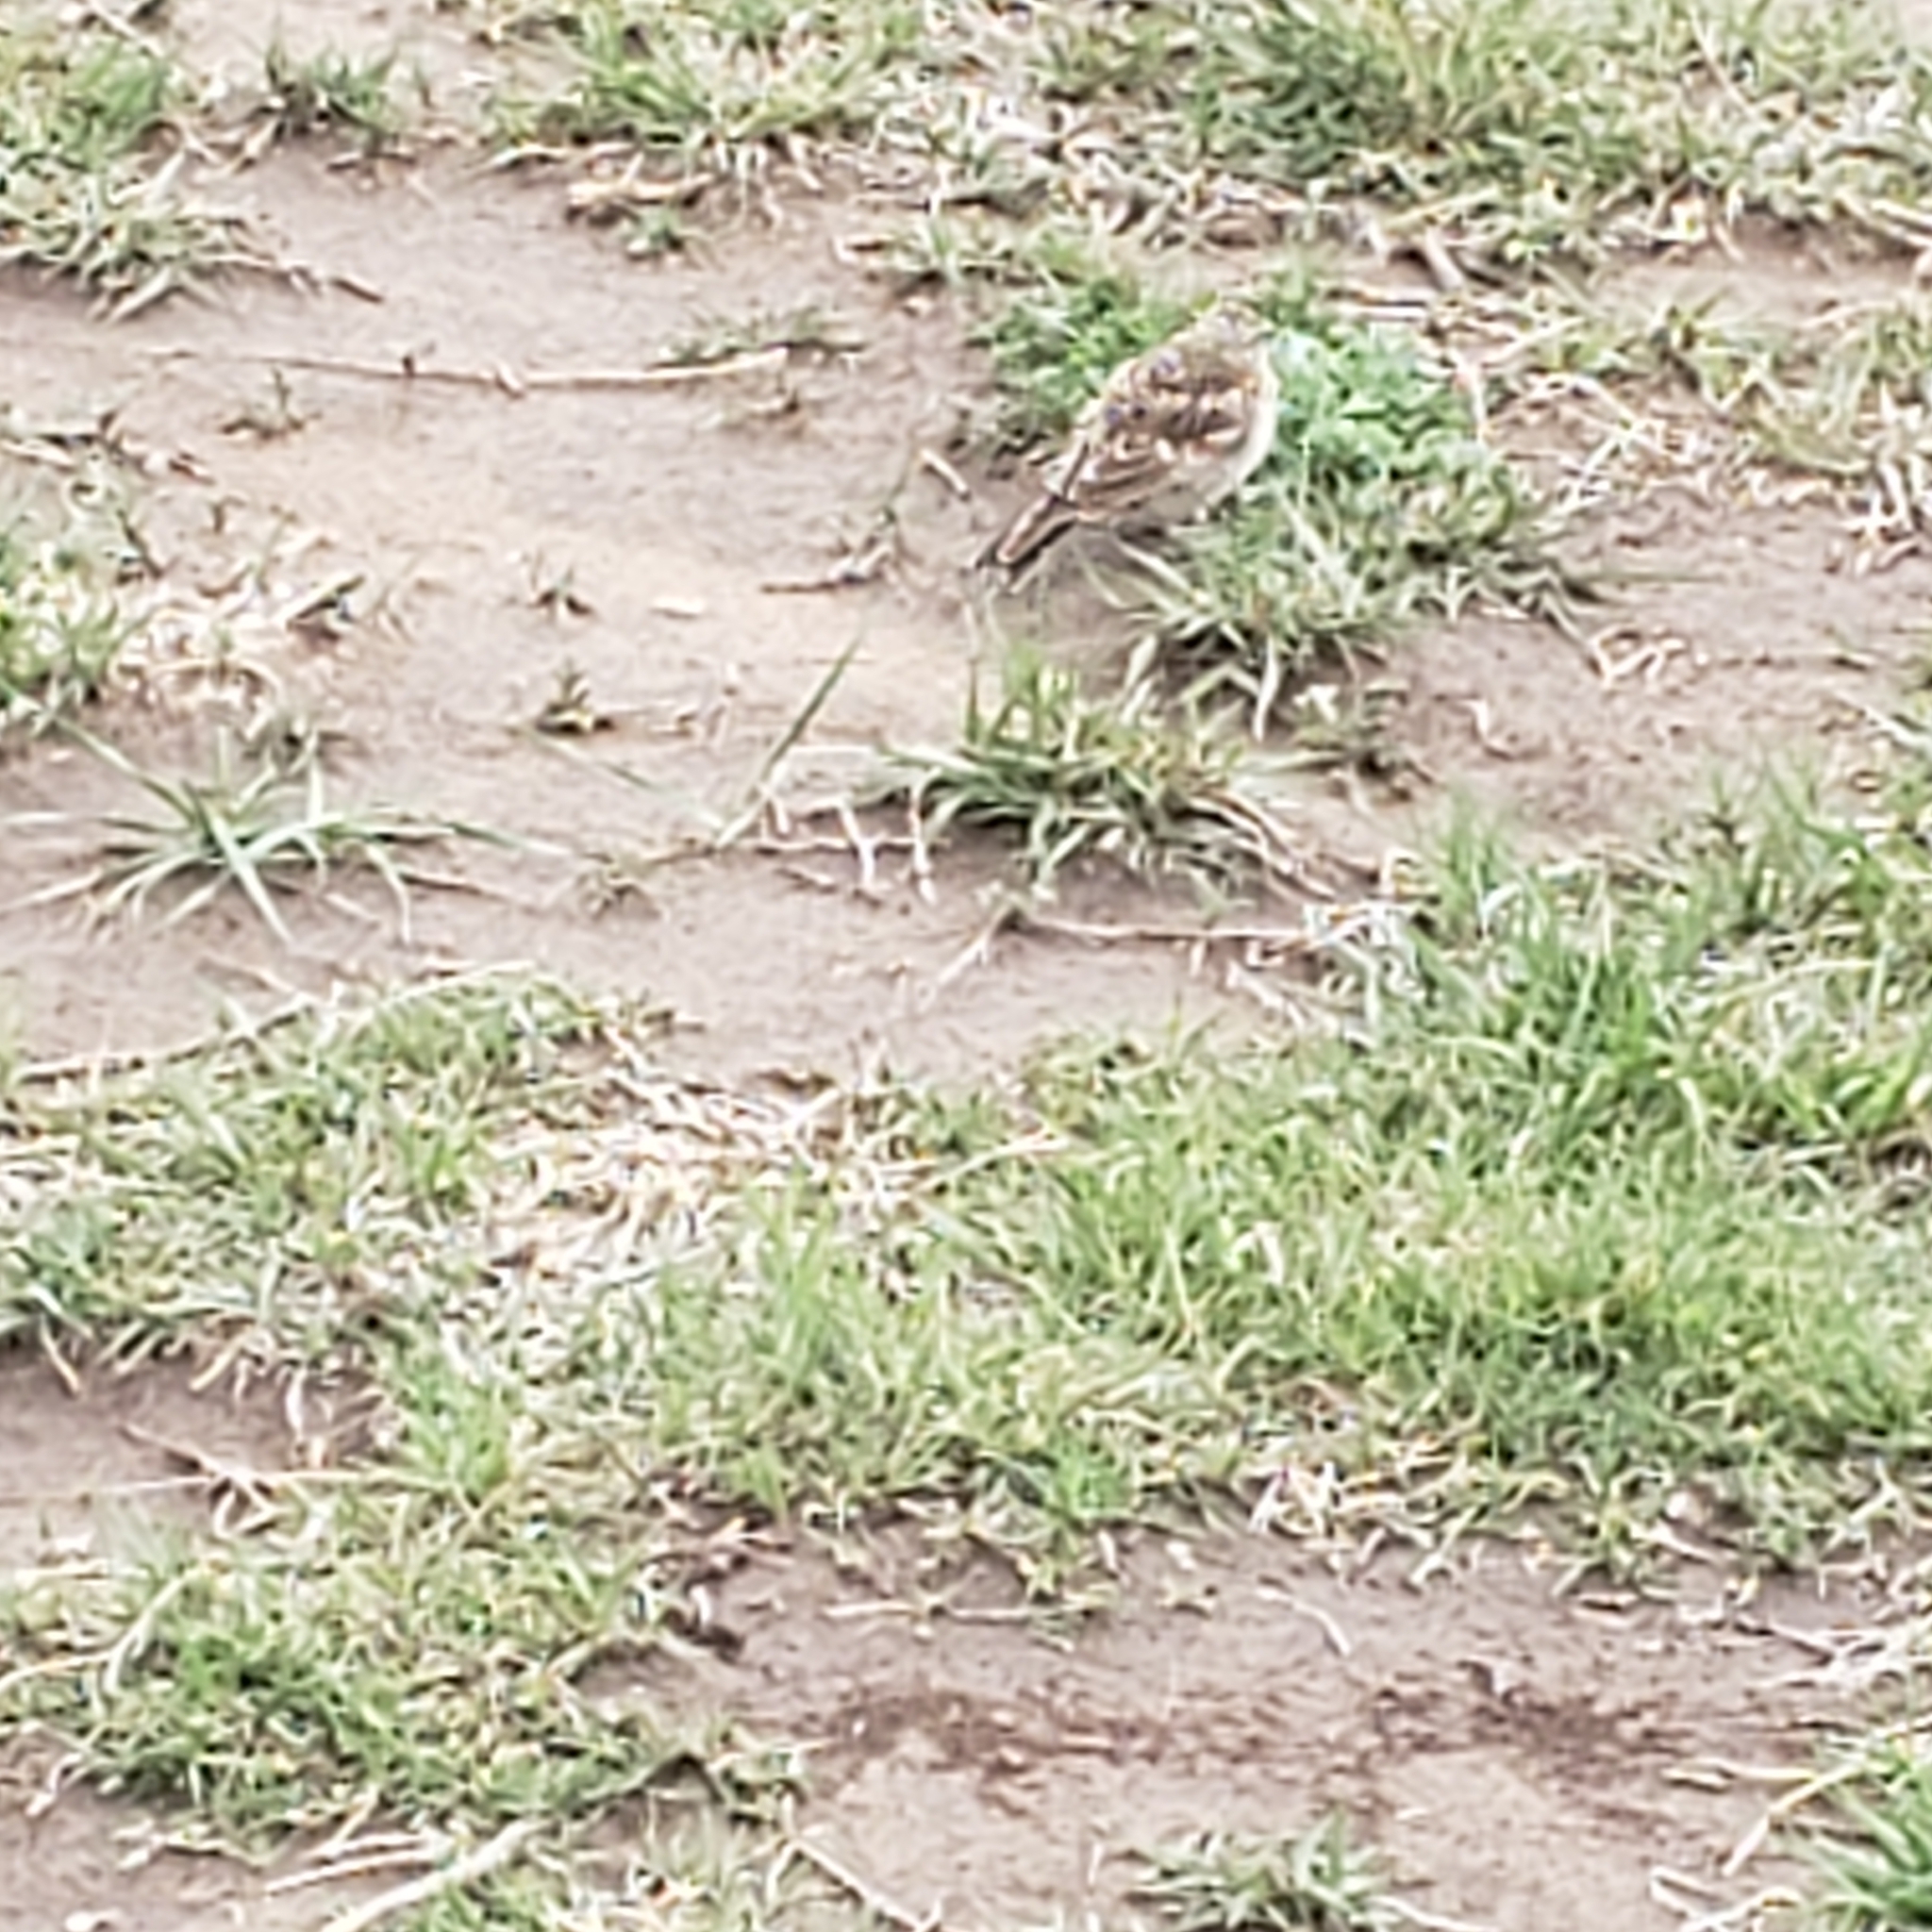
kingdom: Animalia
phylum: Chordata
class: Aves
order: Passeriformes
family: Alaudidae
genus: Eremophila
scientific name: Eremophila alpestris
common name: Horned lark
